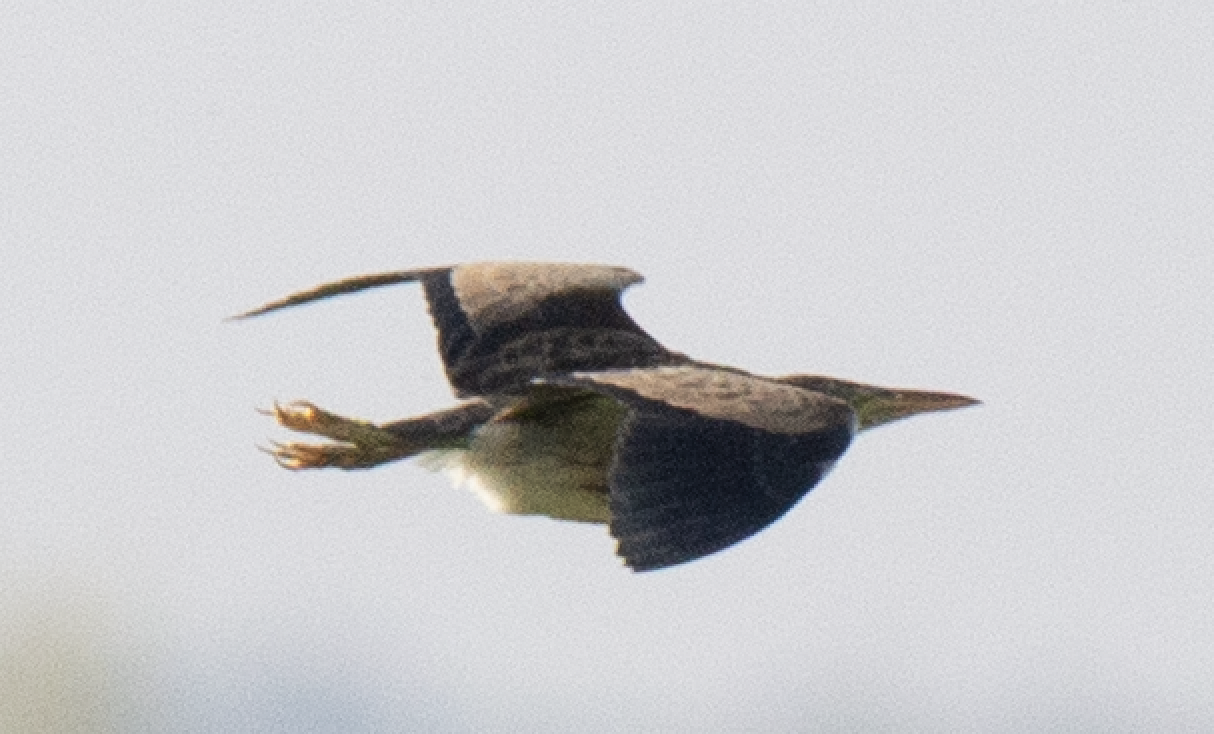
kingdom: Animalia
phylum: Chordata
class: Aves
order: Pelecaniformes
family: Ardeidae
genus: Ixobrychus
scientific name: Ixobrychus minutus
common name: Little bittern
